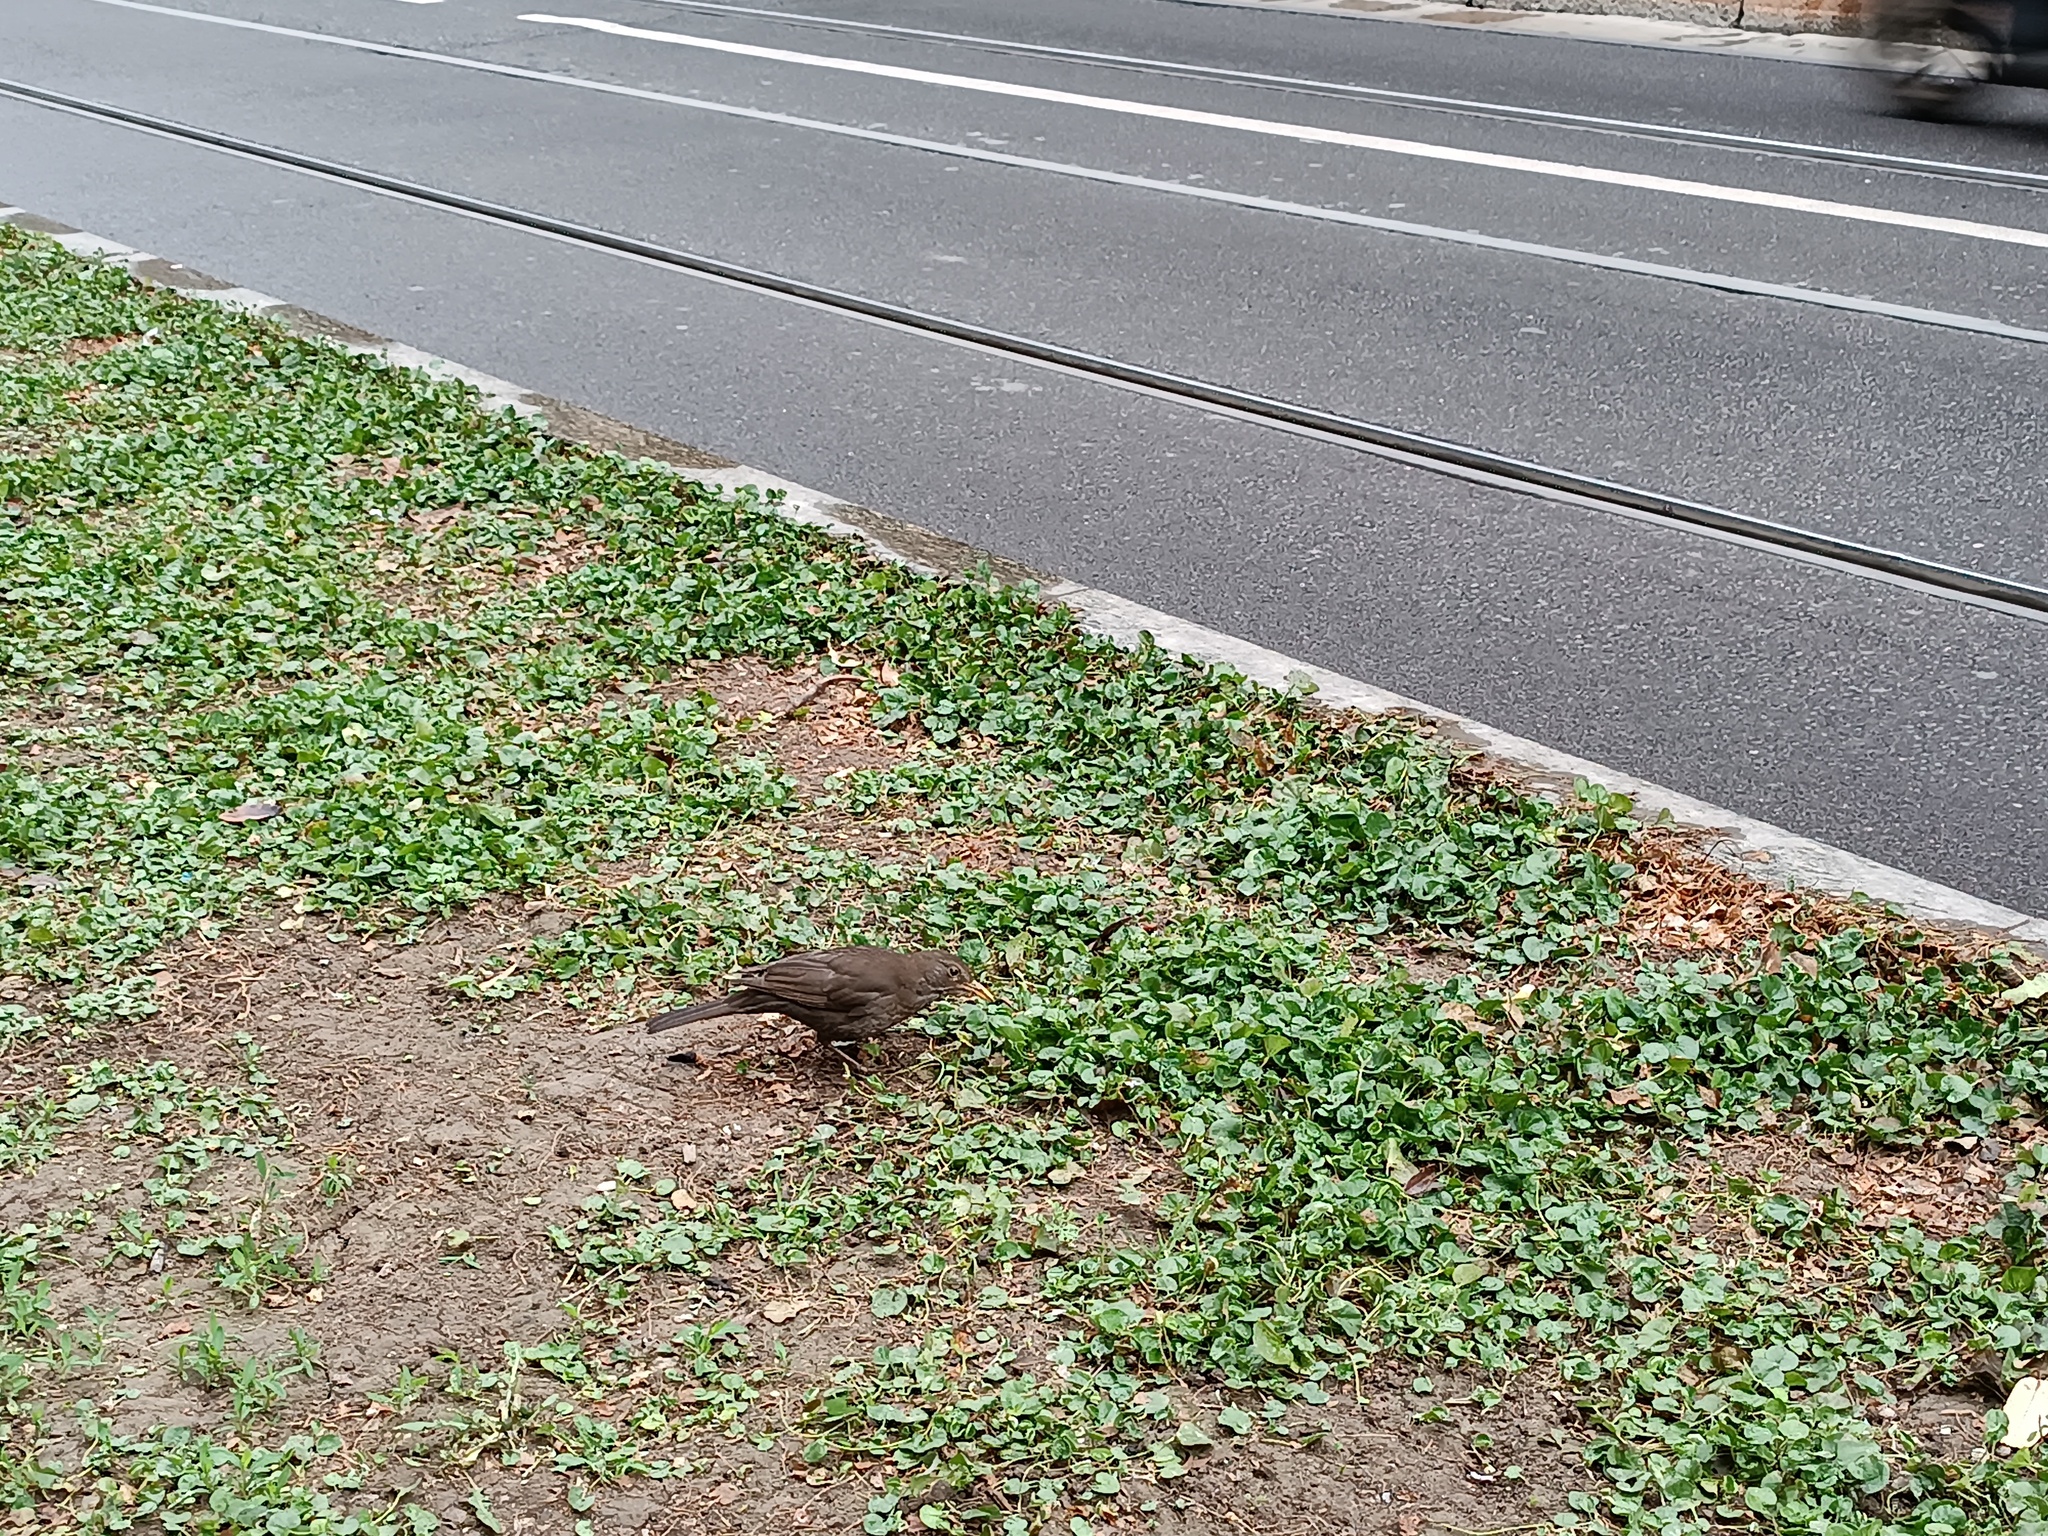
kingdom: Animalia
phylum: Chordata
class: Aves
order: Passeriformes
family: Turdidae
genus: Turdus
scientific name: Turdus merula
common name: Common blackbird
